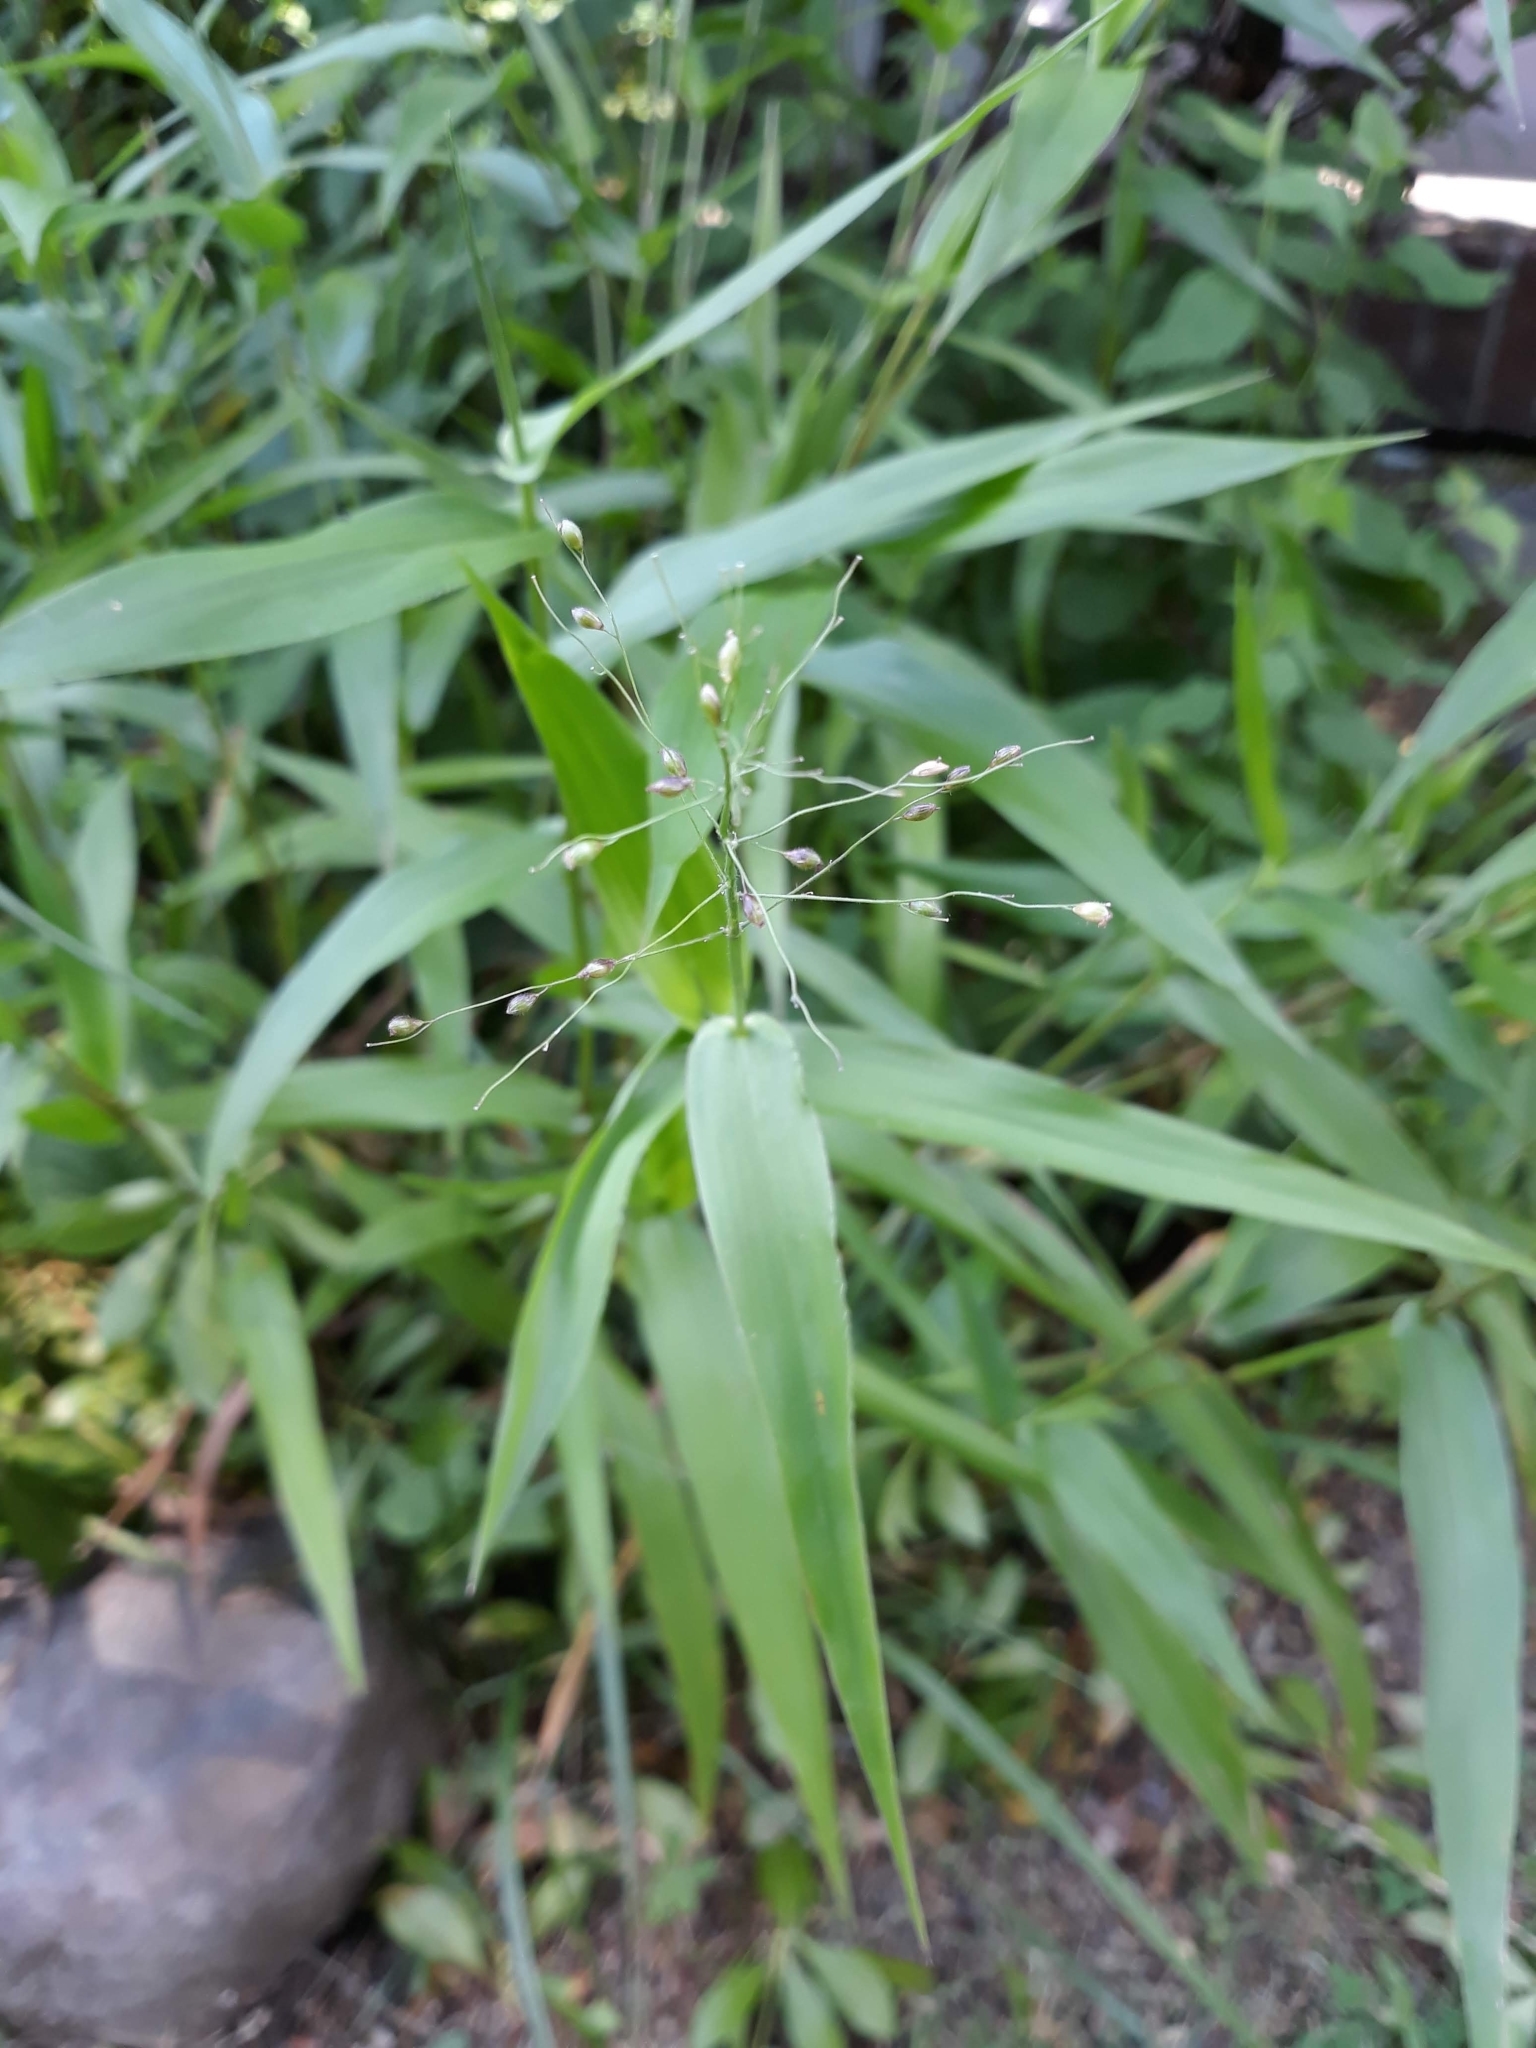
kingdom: Plantae
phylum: Tracheophyta
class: Liliopsida
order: Poales
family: Poaceae
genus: Dichanthelium
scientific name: Dichanthelium clandestinum
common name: Deer-tongue grass
